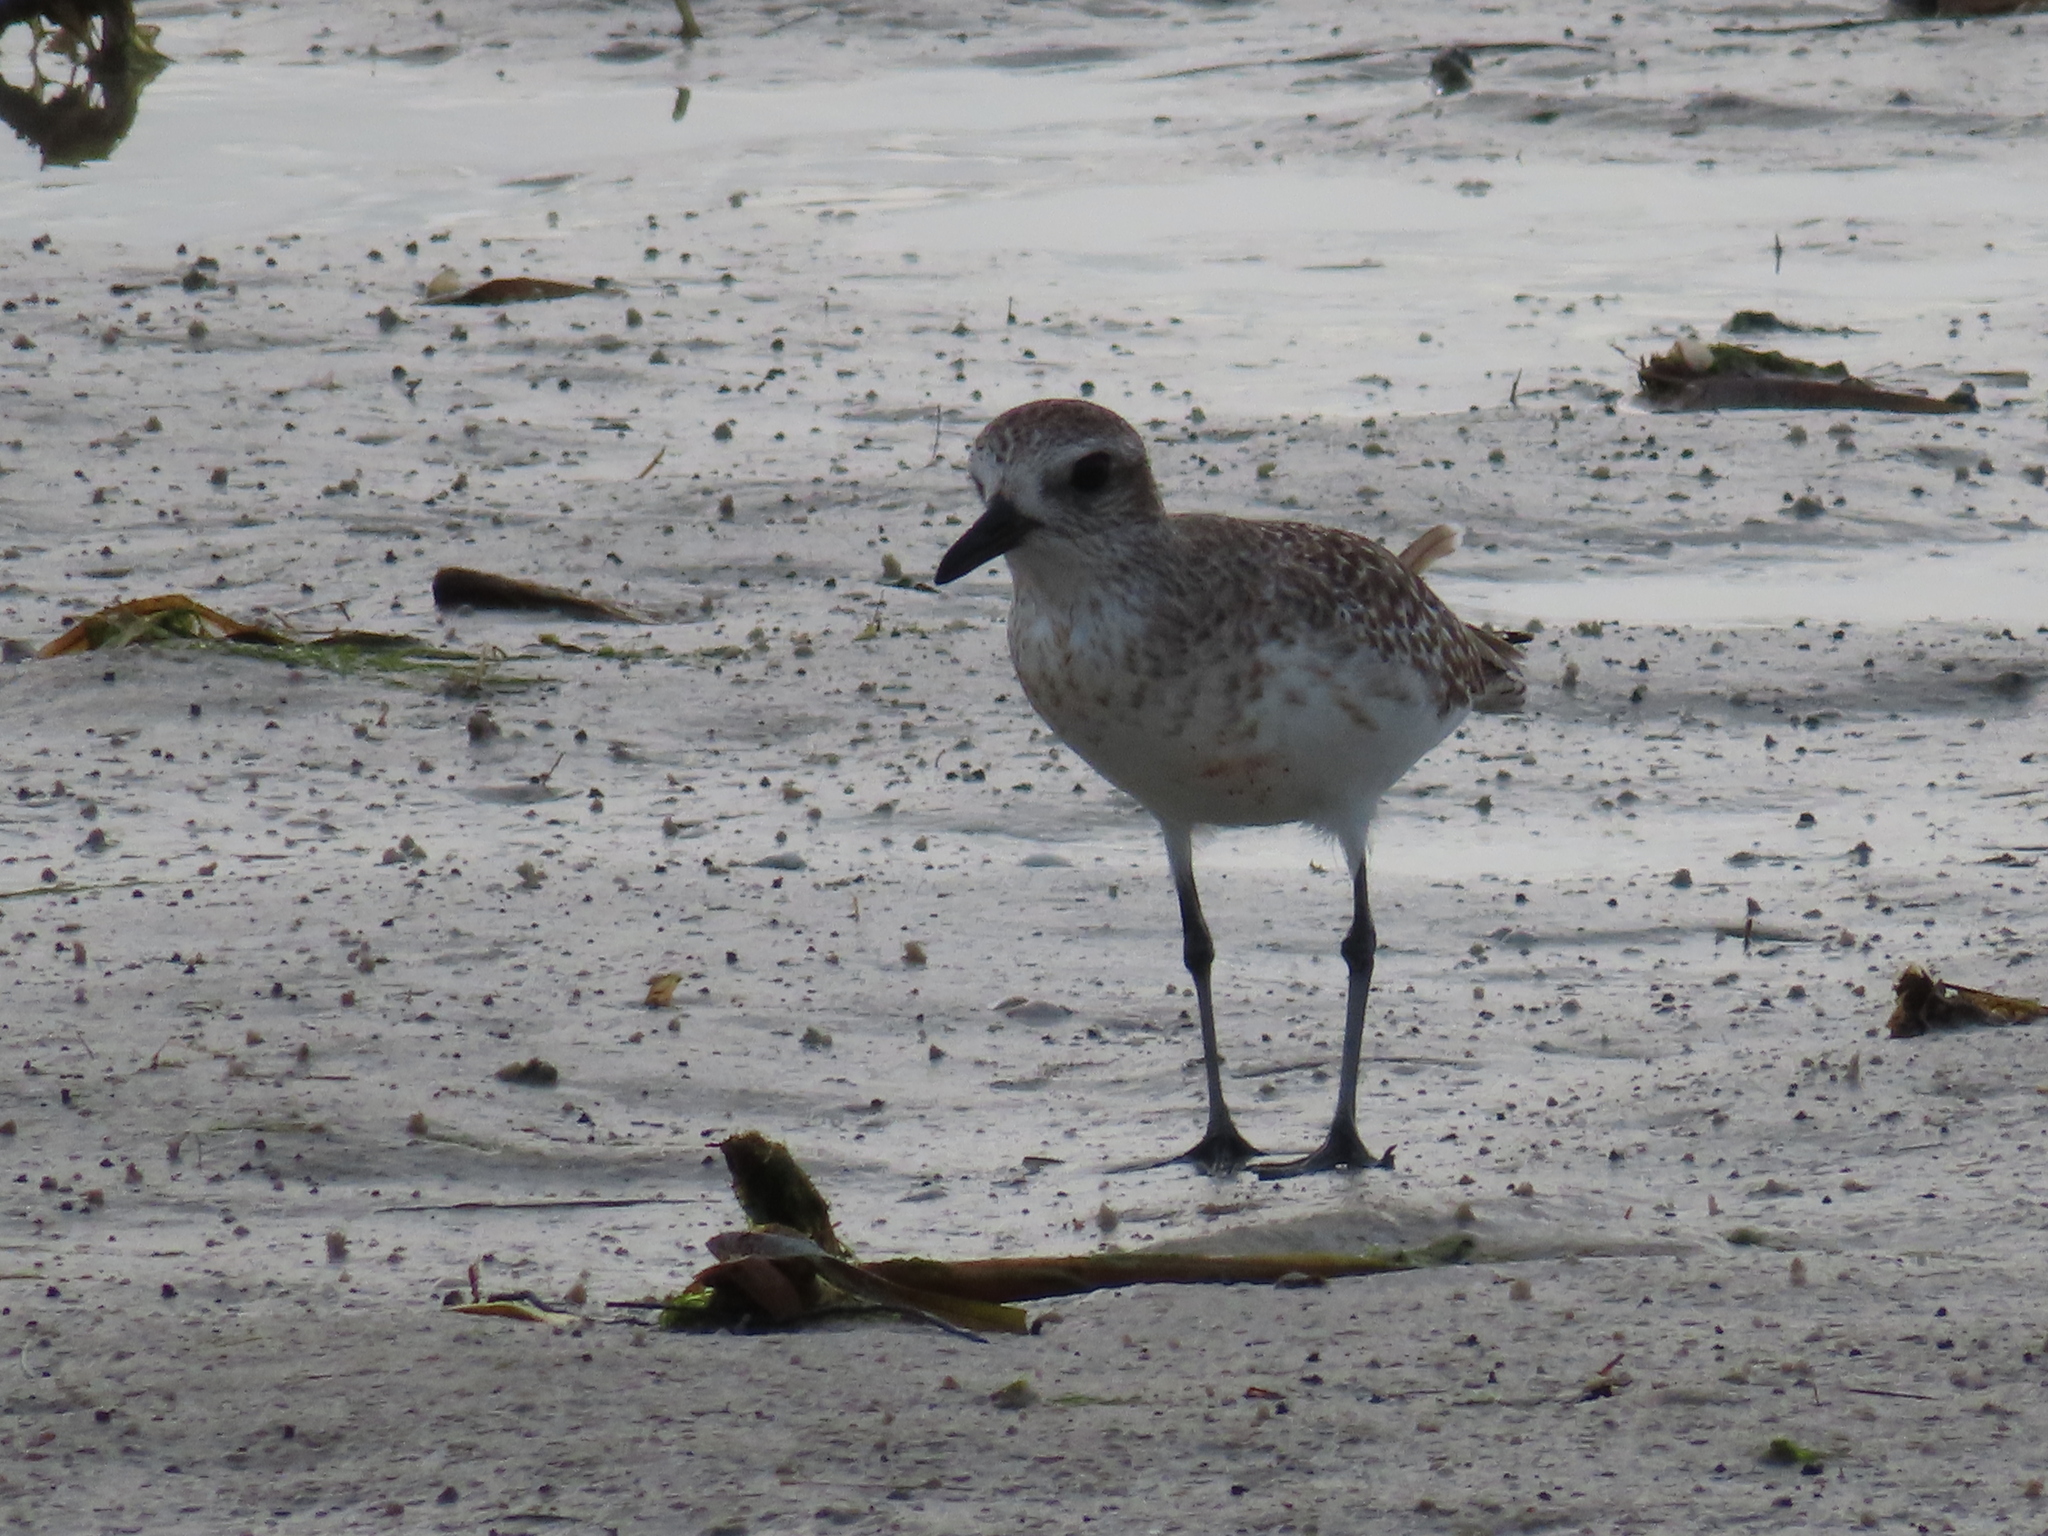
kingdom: Animalia
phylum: Chordata
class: Aves
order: Charadriiformes
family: Charadriidae
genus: Pluvialis
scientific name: Pluvialis squatarola
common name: Grey plover
